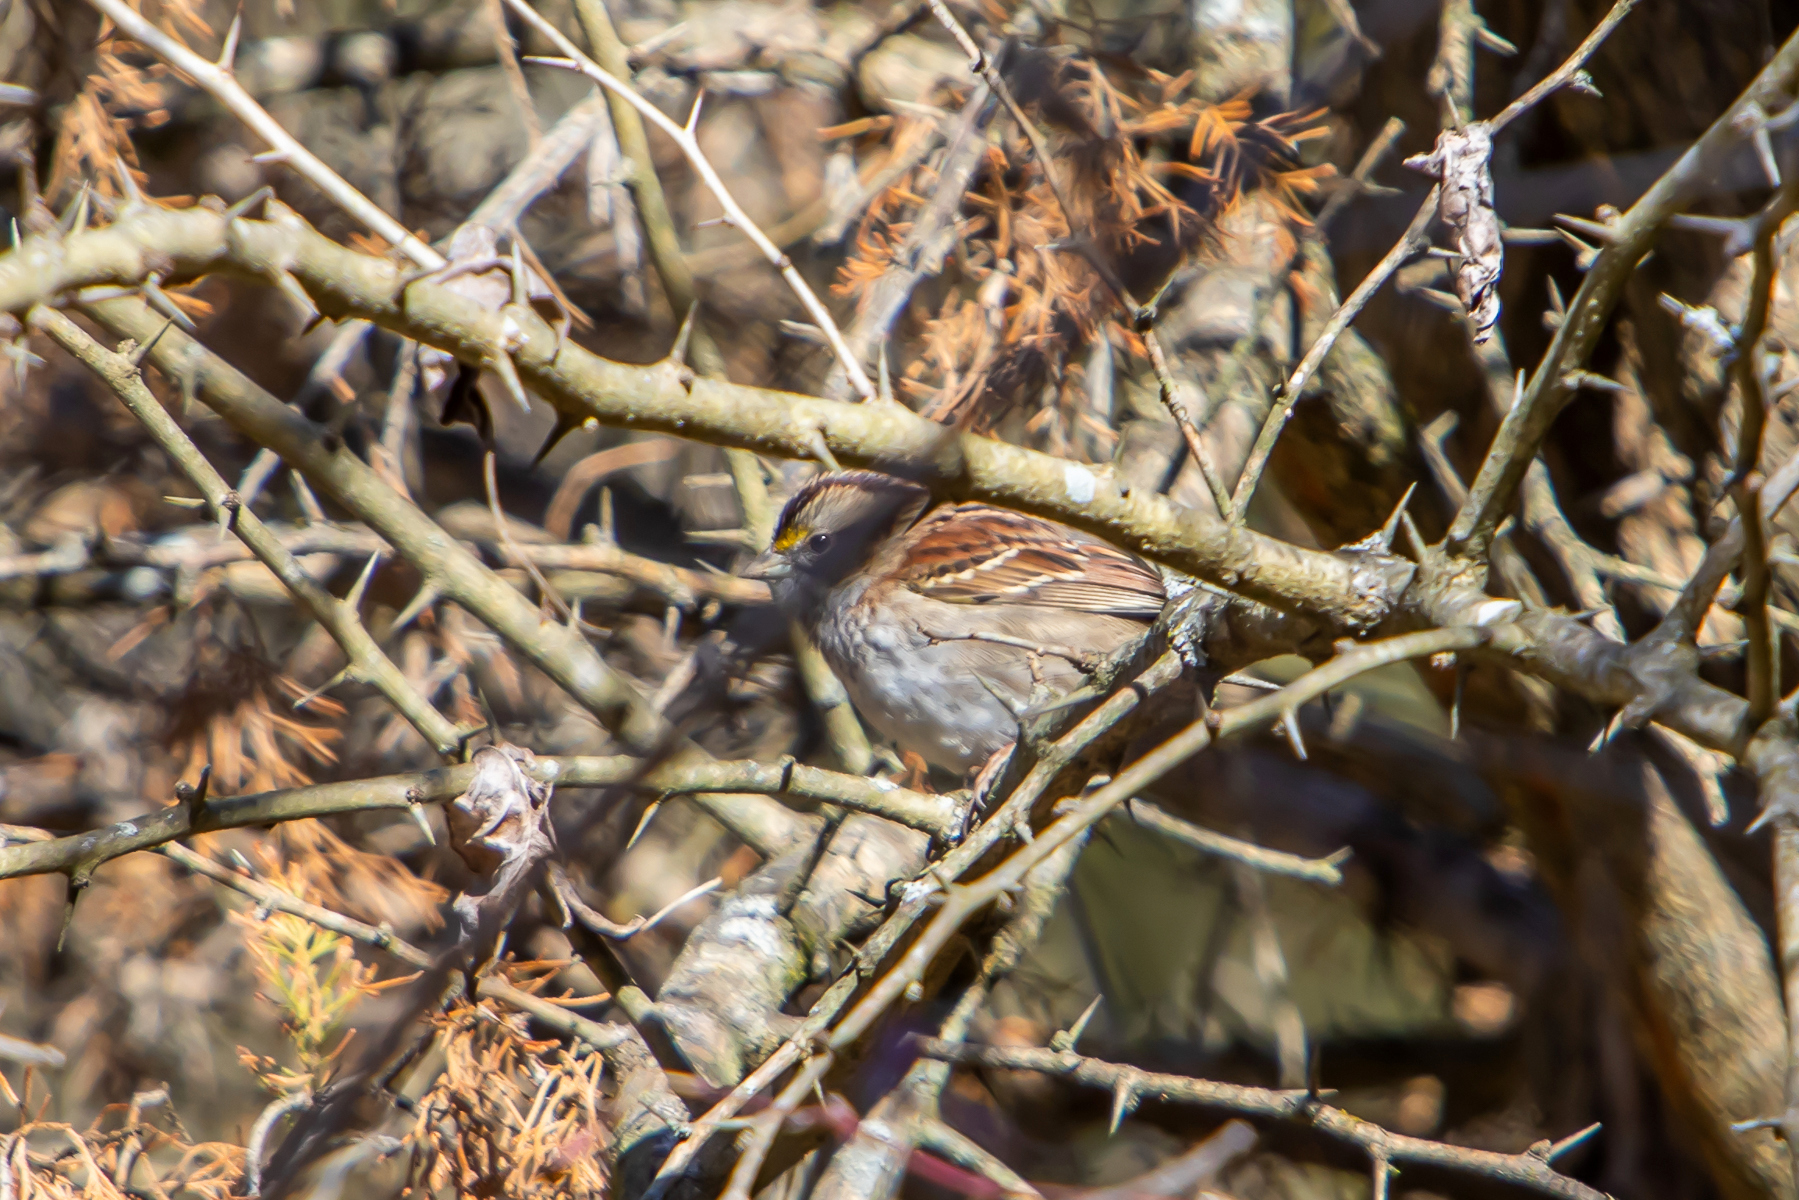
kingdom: Animalia
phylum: Chordata
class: Aves
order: Passeriformes
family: Passerellidae
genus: Zonotrichia
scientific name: Zonotrichia albicollis
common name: White-throated sparrow
